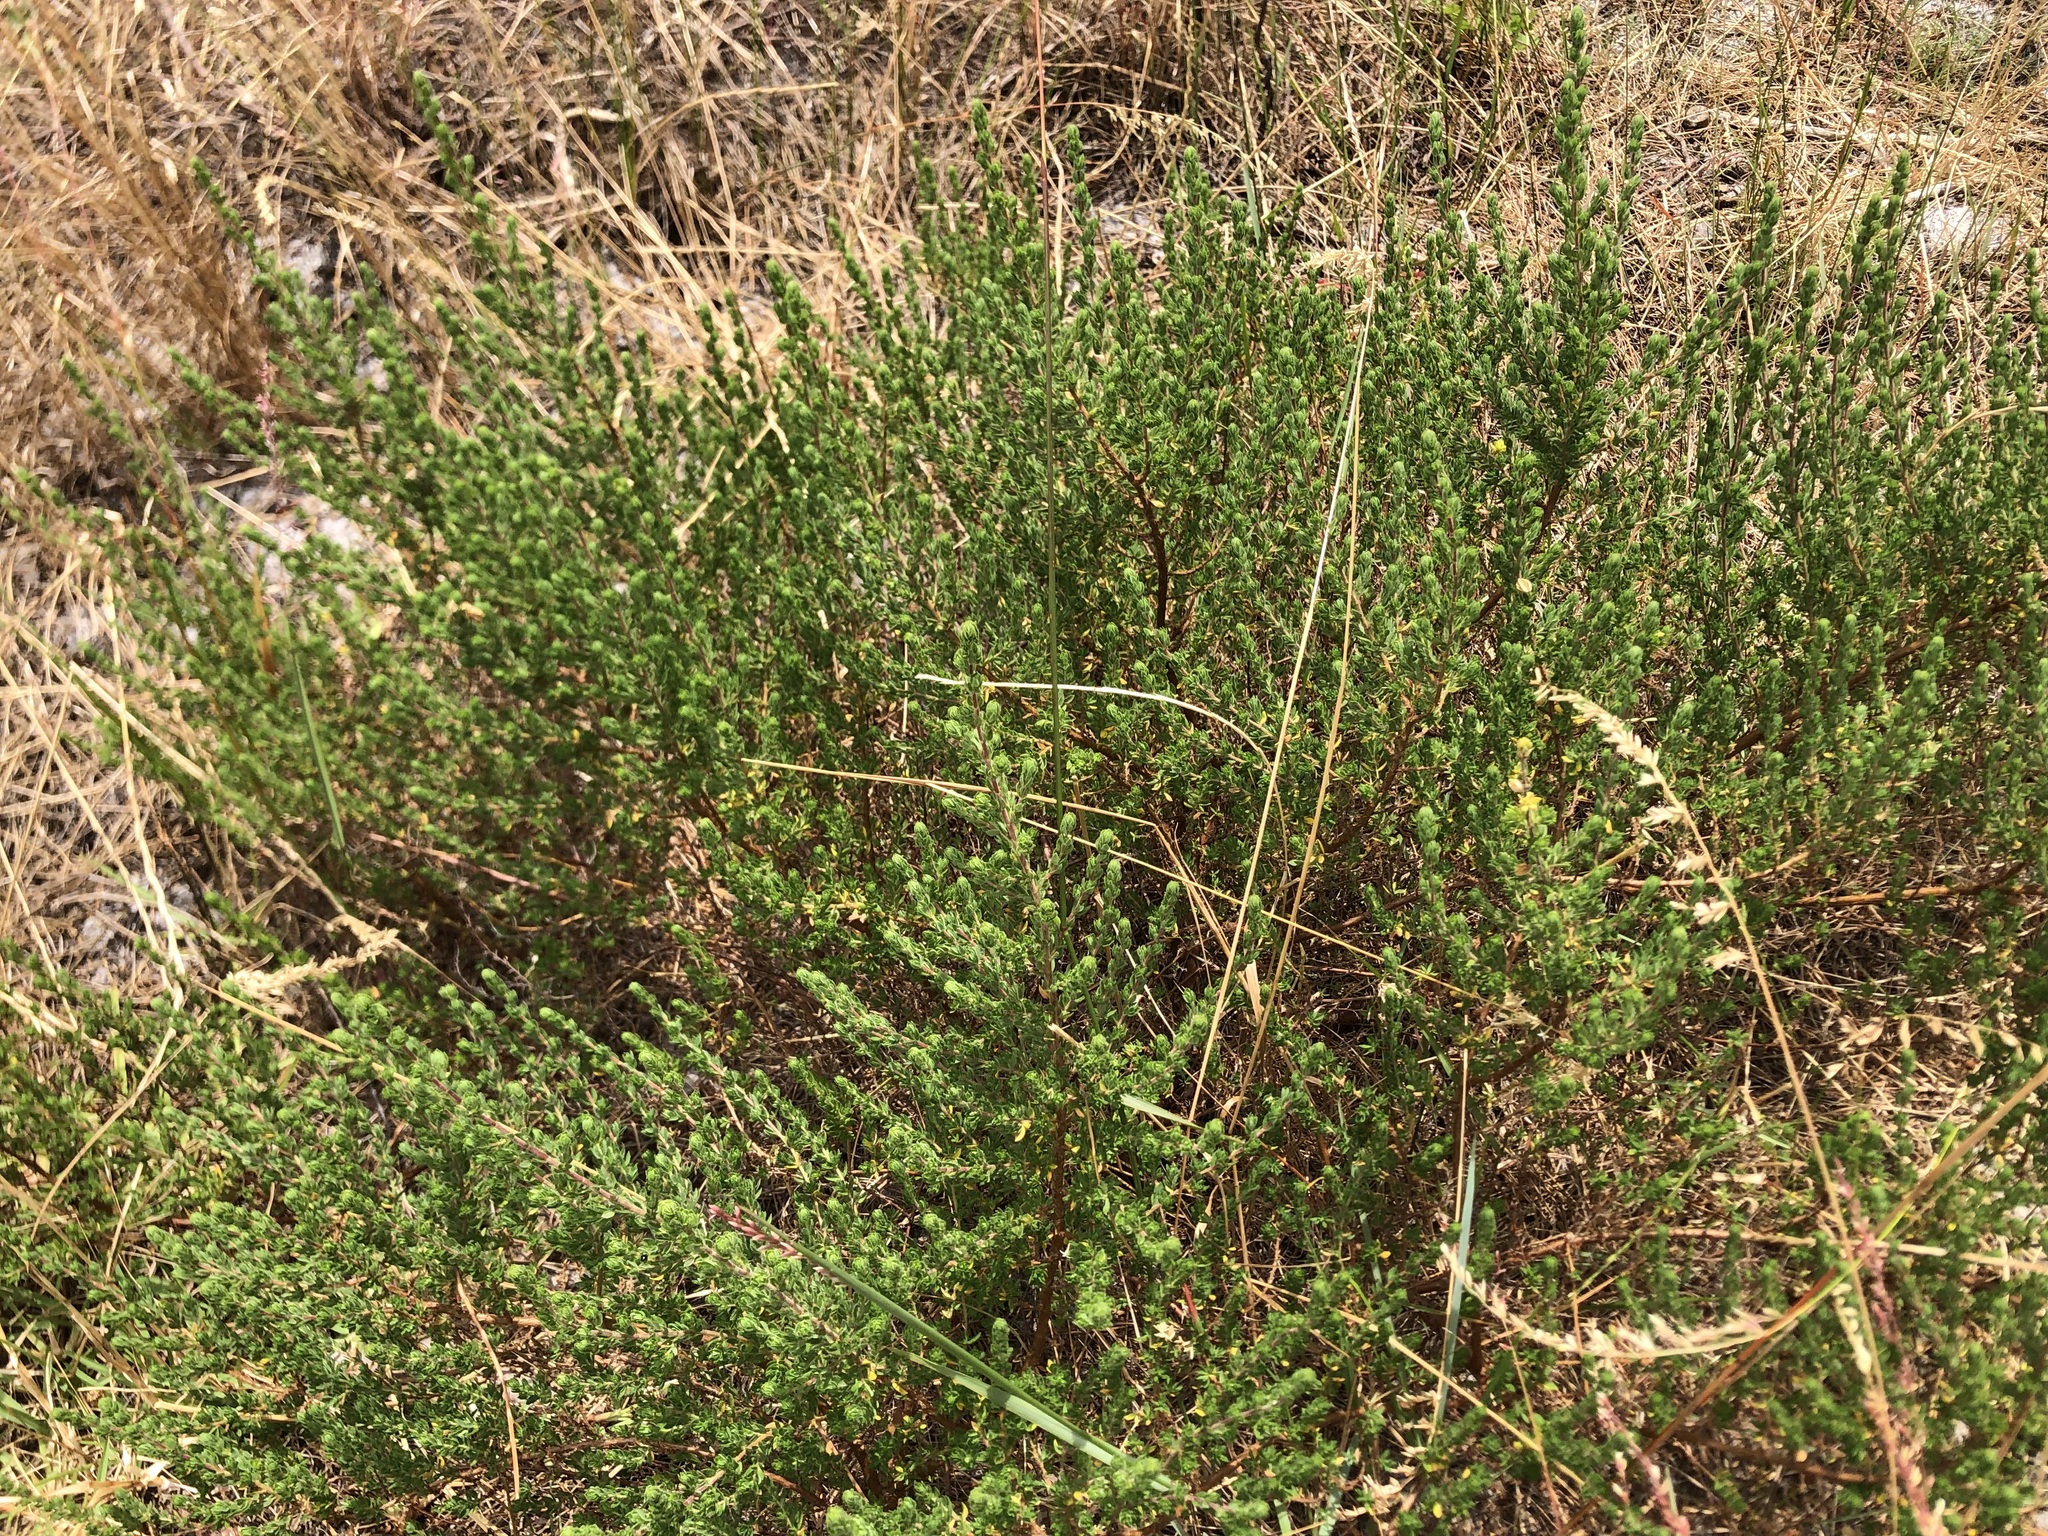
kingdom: Plantae
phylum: Tracheophyta
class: Magnoliopsida
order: Rosales
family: Rosaceae
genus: Cliffortia
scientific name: Cliffortia polygonifolia
